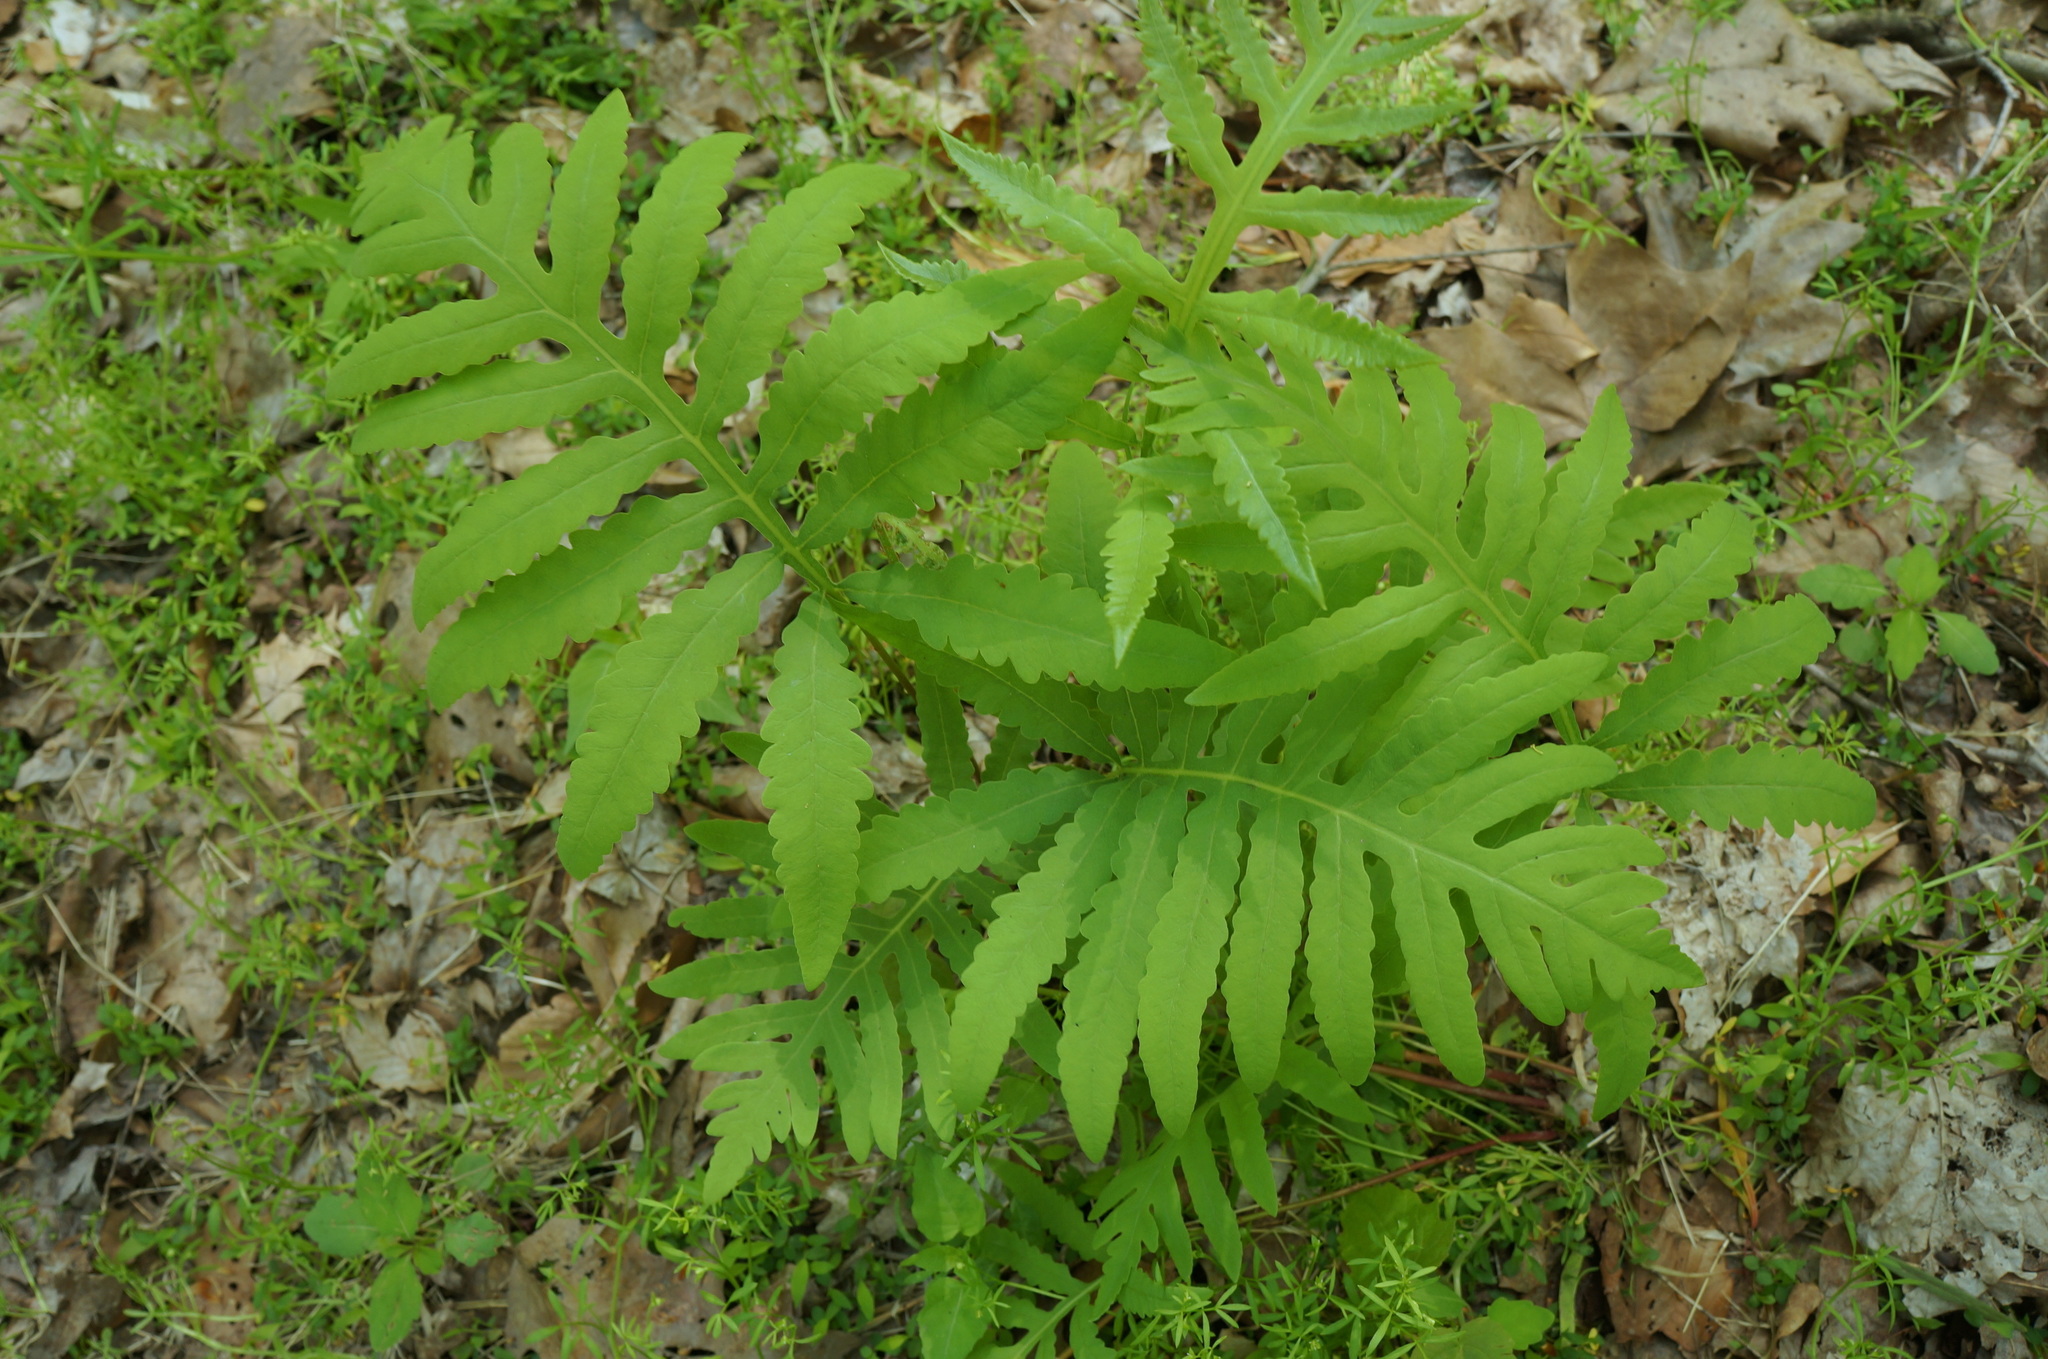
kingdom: Plantae
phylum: Tracheophyta
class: Polypodiopsida
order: Polypodiales
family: Onocleaceae
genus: Onoclea
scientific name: Onoclea sensibilis
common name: Sensitive fern
